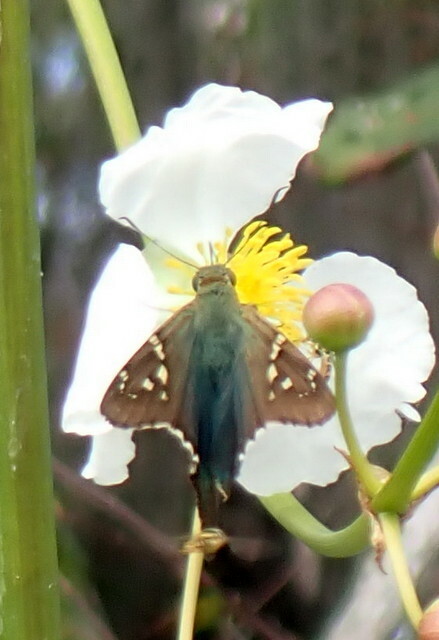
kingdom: Animalia
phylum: Arthropoda
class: Insecta
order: Lepidoptera
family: Hesperiidae
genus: Urbanus
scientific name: Urbanus proteus
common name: Long-tailed skipper
